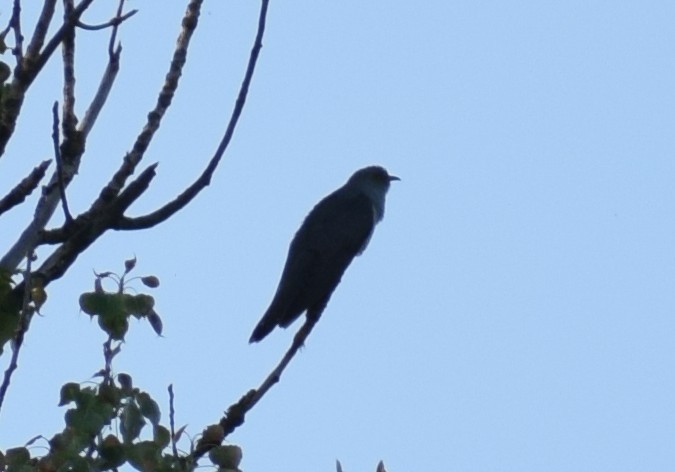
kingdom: Animalia
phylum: Chordata
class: Aves
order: Cuculiformes
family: Cuculidae
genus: Cuculus
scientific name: Cuculus canorus
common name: Common cuckoo
